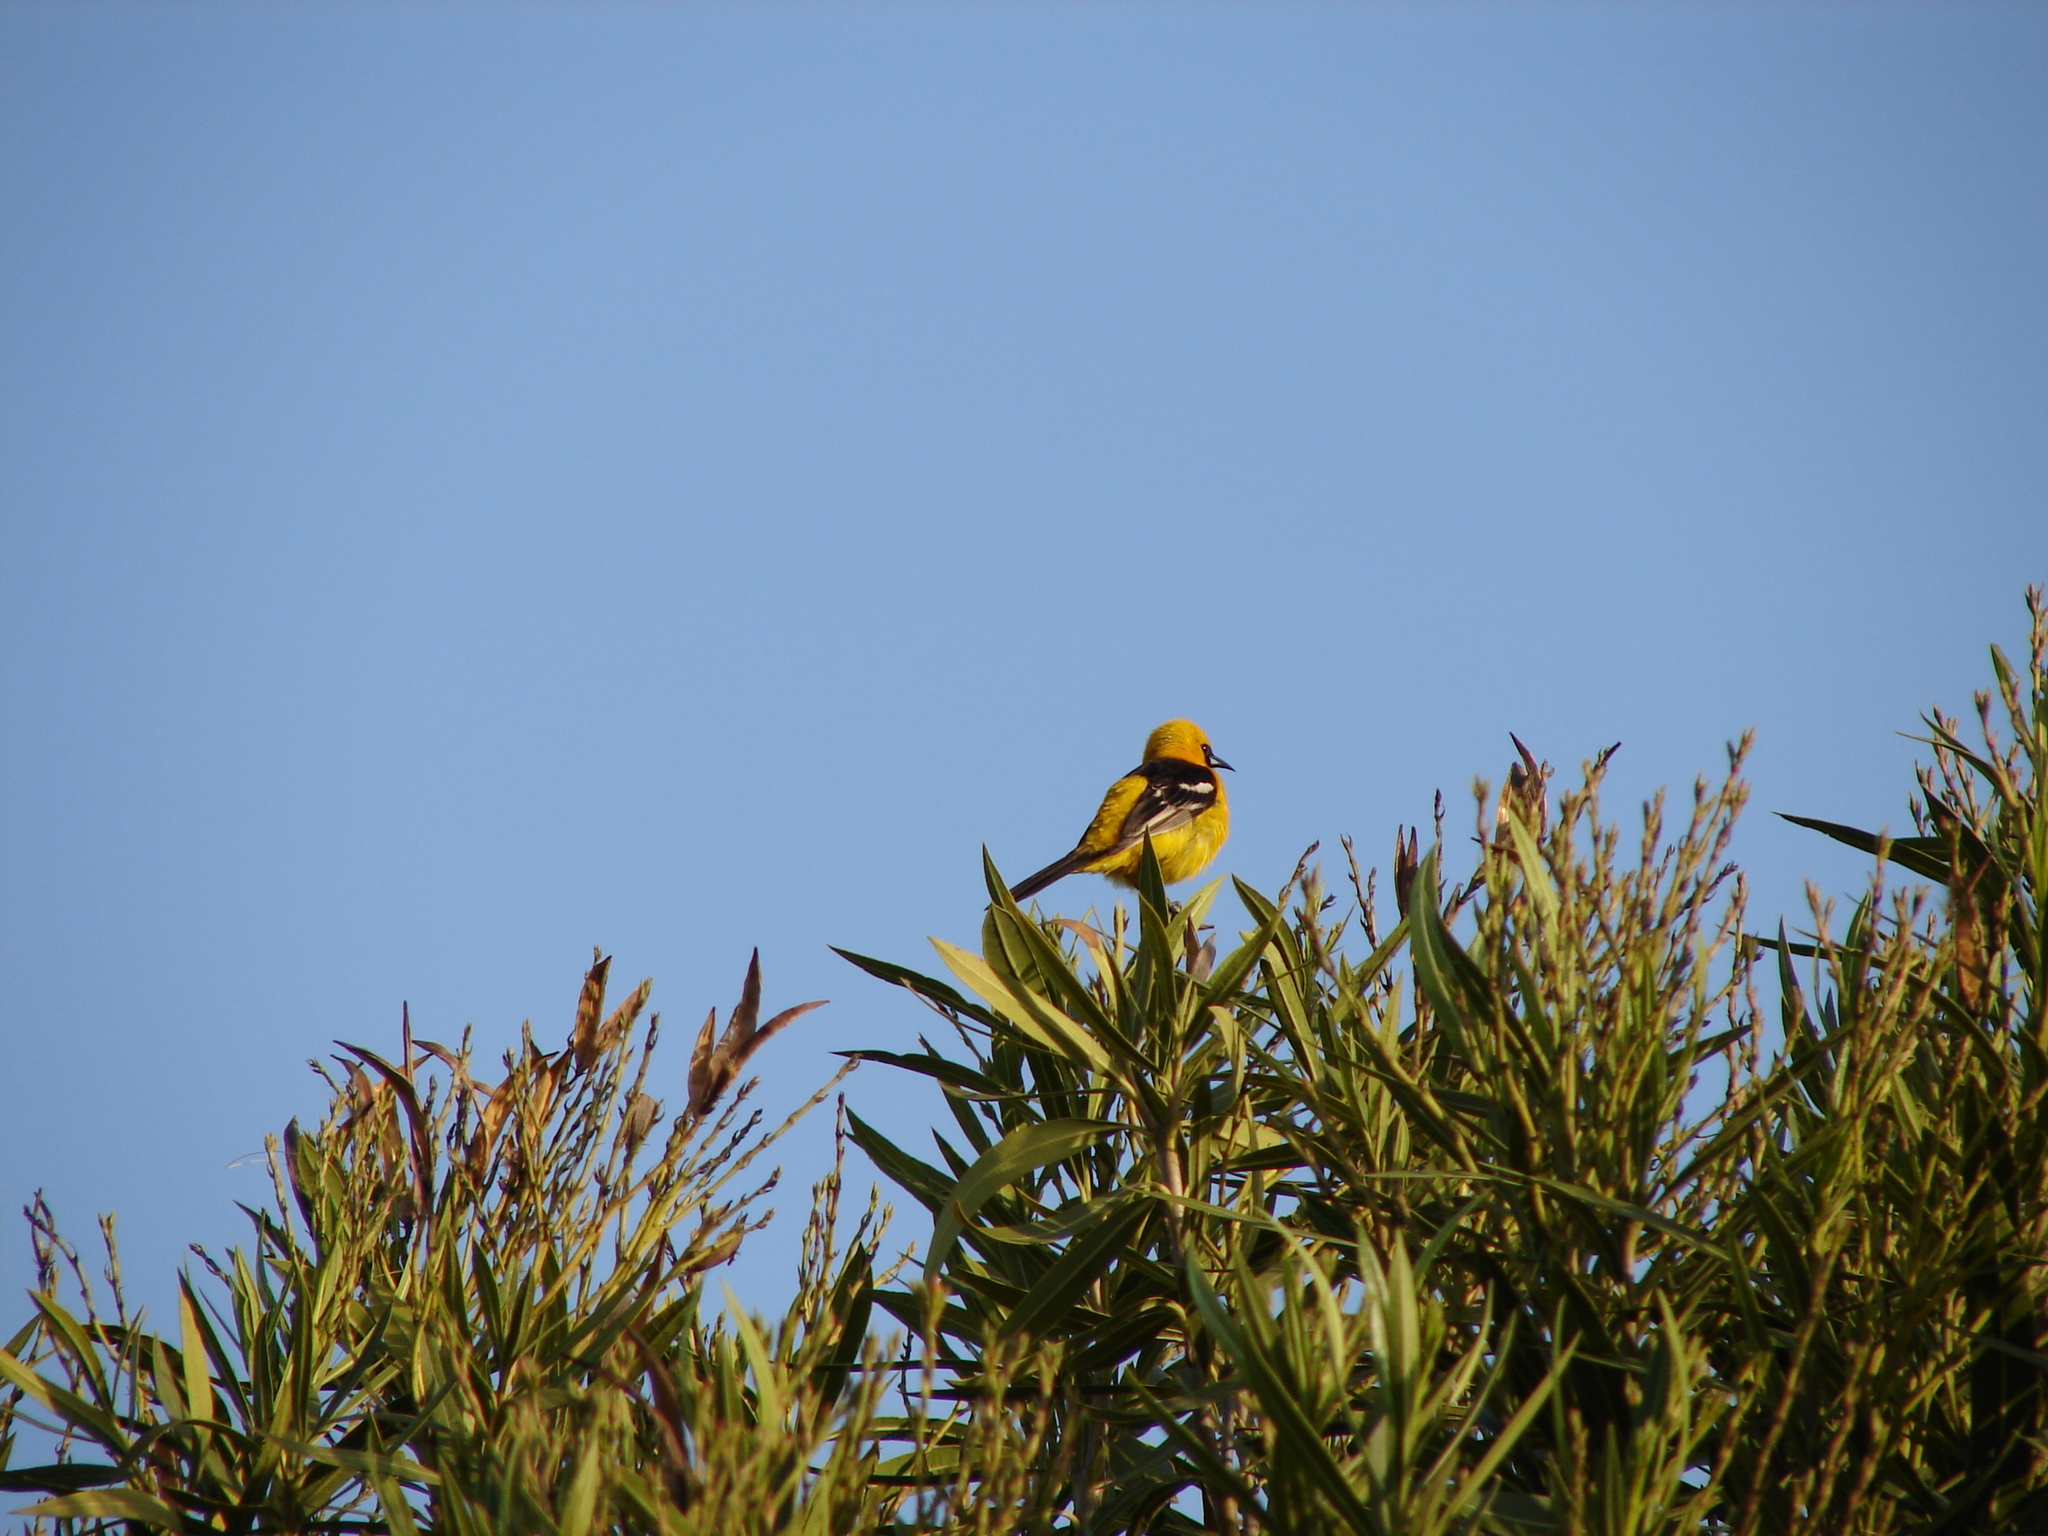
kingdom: Animalia
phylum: Chordata
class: Aves
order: Passeriformes
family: Icteridae
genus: Icterus
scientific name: Icterus cucullatus
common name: Hooded oriole
